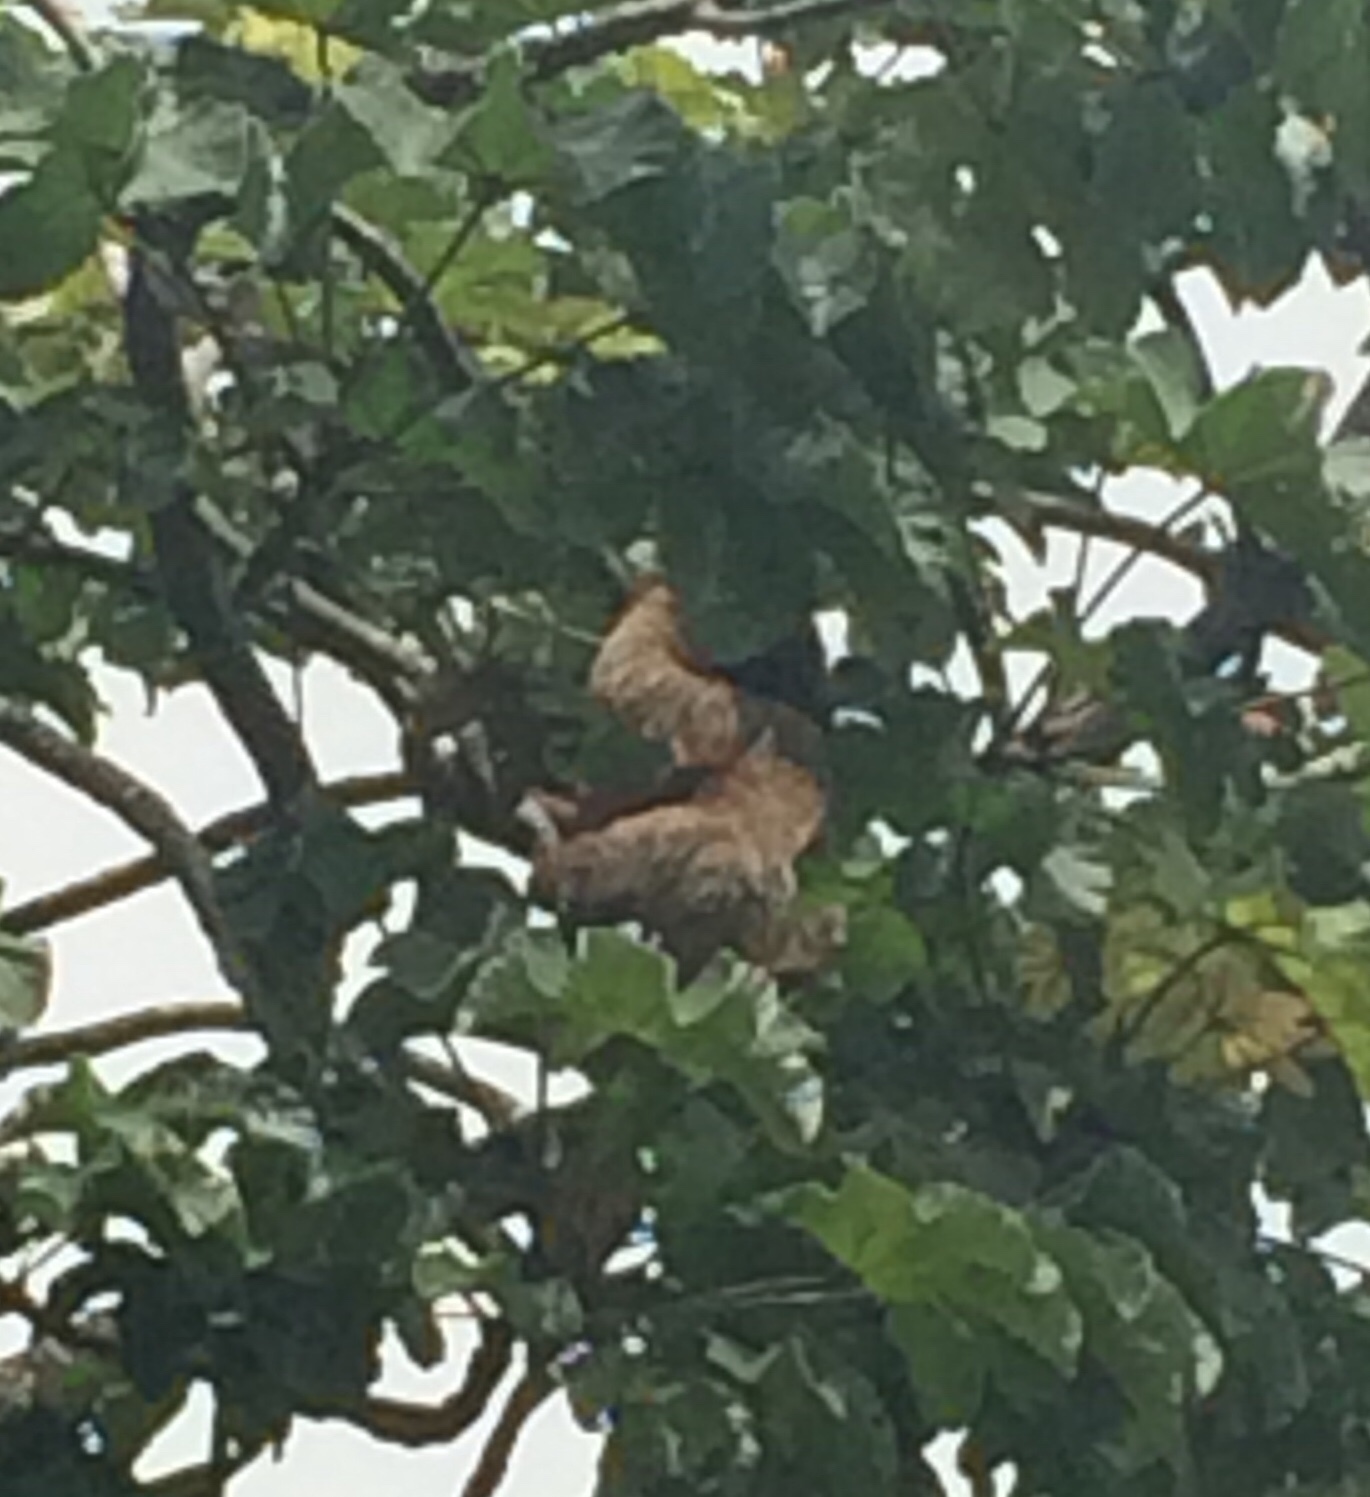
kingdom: Animalia
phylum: Chordata
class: Mammalia
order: Pilosa
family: Bradypodidae
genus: Bradypus
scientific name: Bradypus torquatus
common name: Maned sloth
